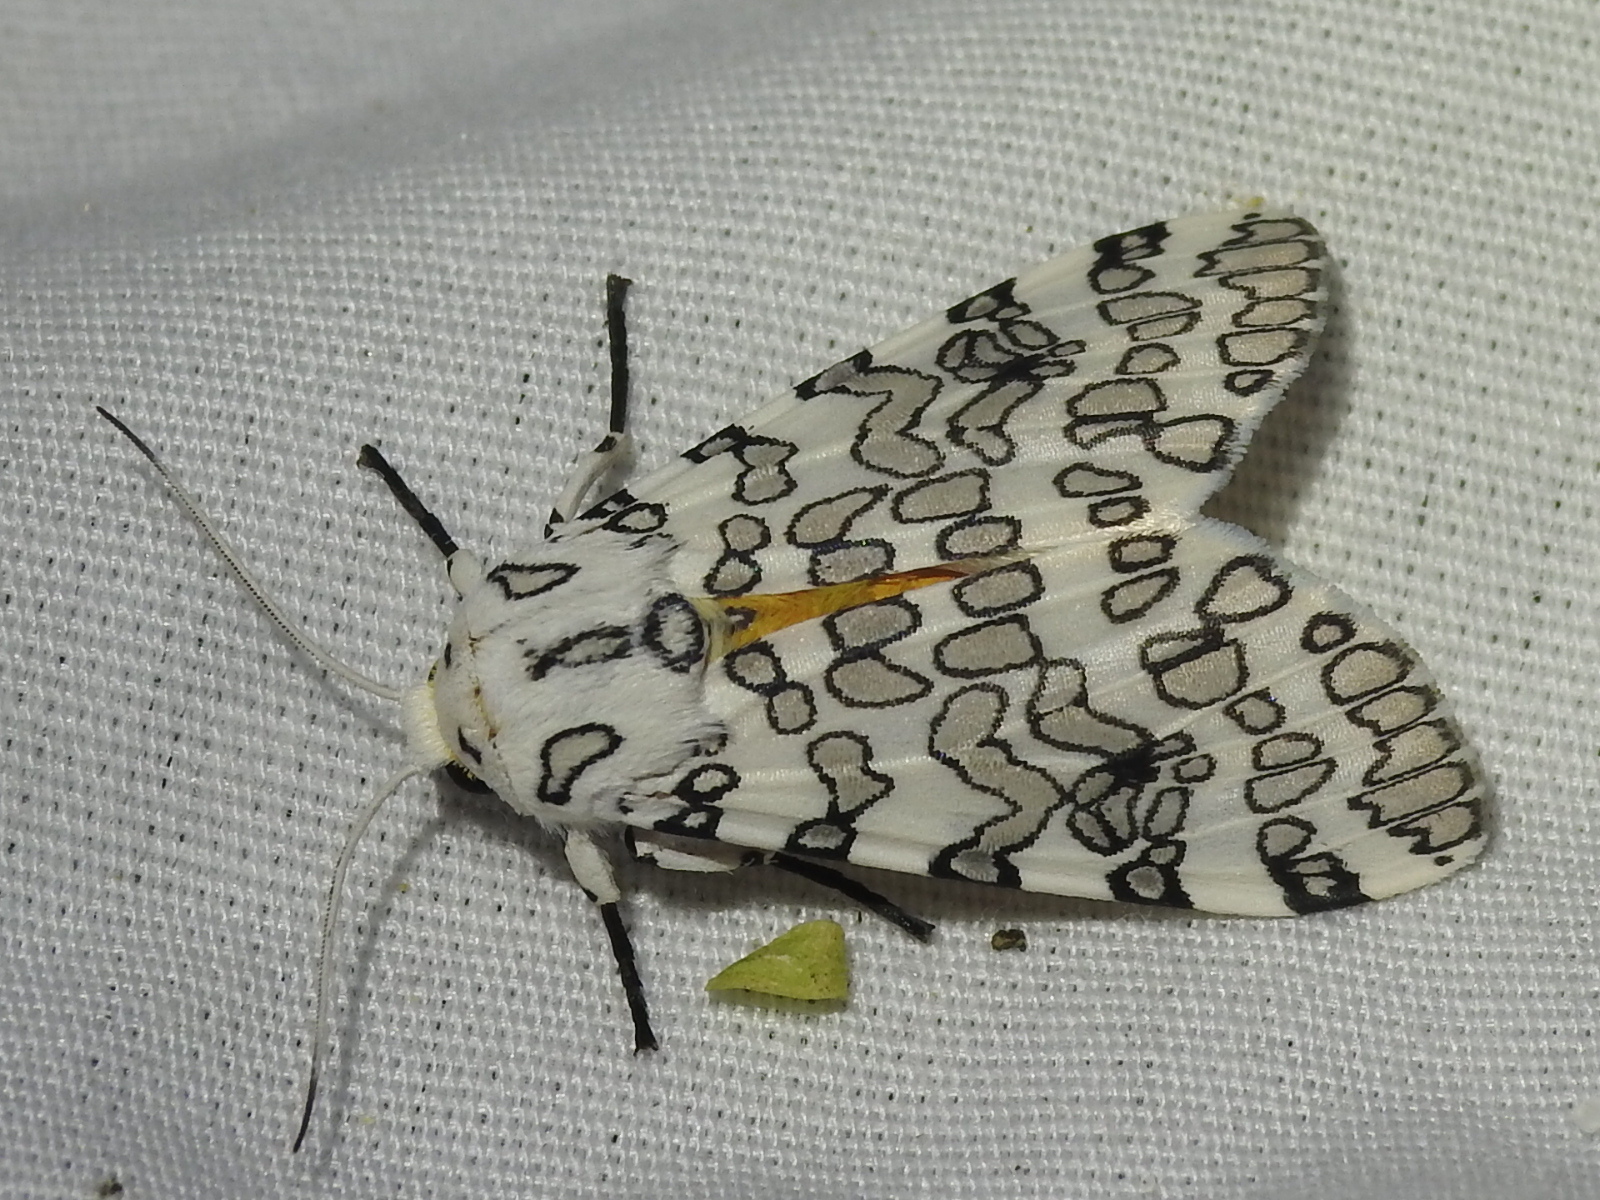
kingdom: Animalia
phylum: Arthropoda
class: Insecta
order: Lepidoptera
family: Erebidae
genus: Hypercompe
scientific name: Hypercompe oslari
